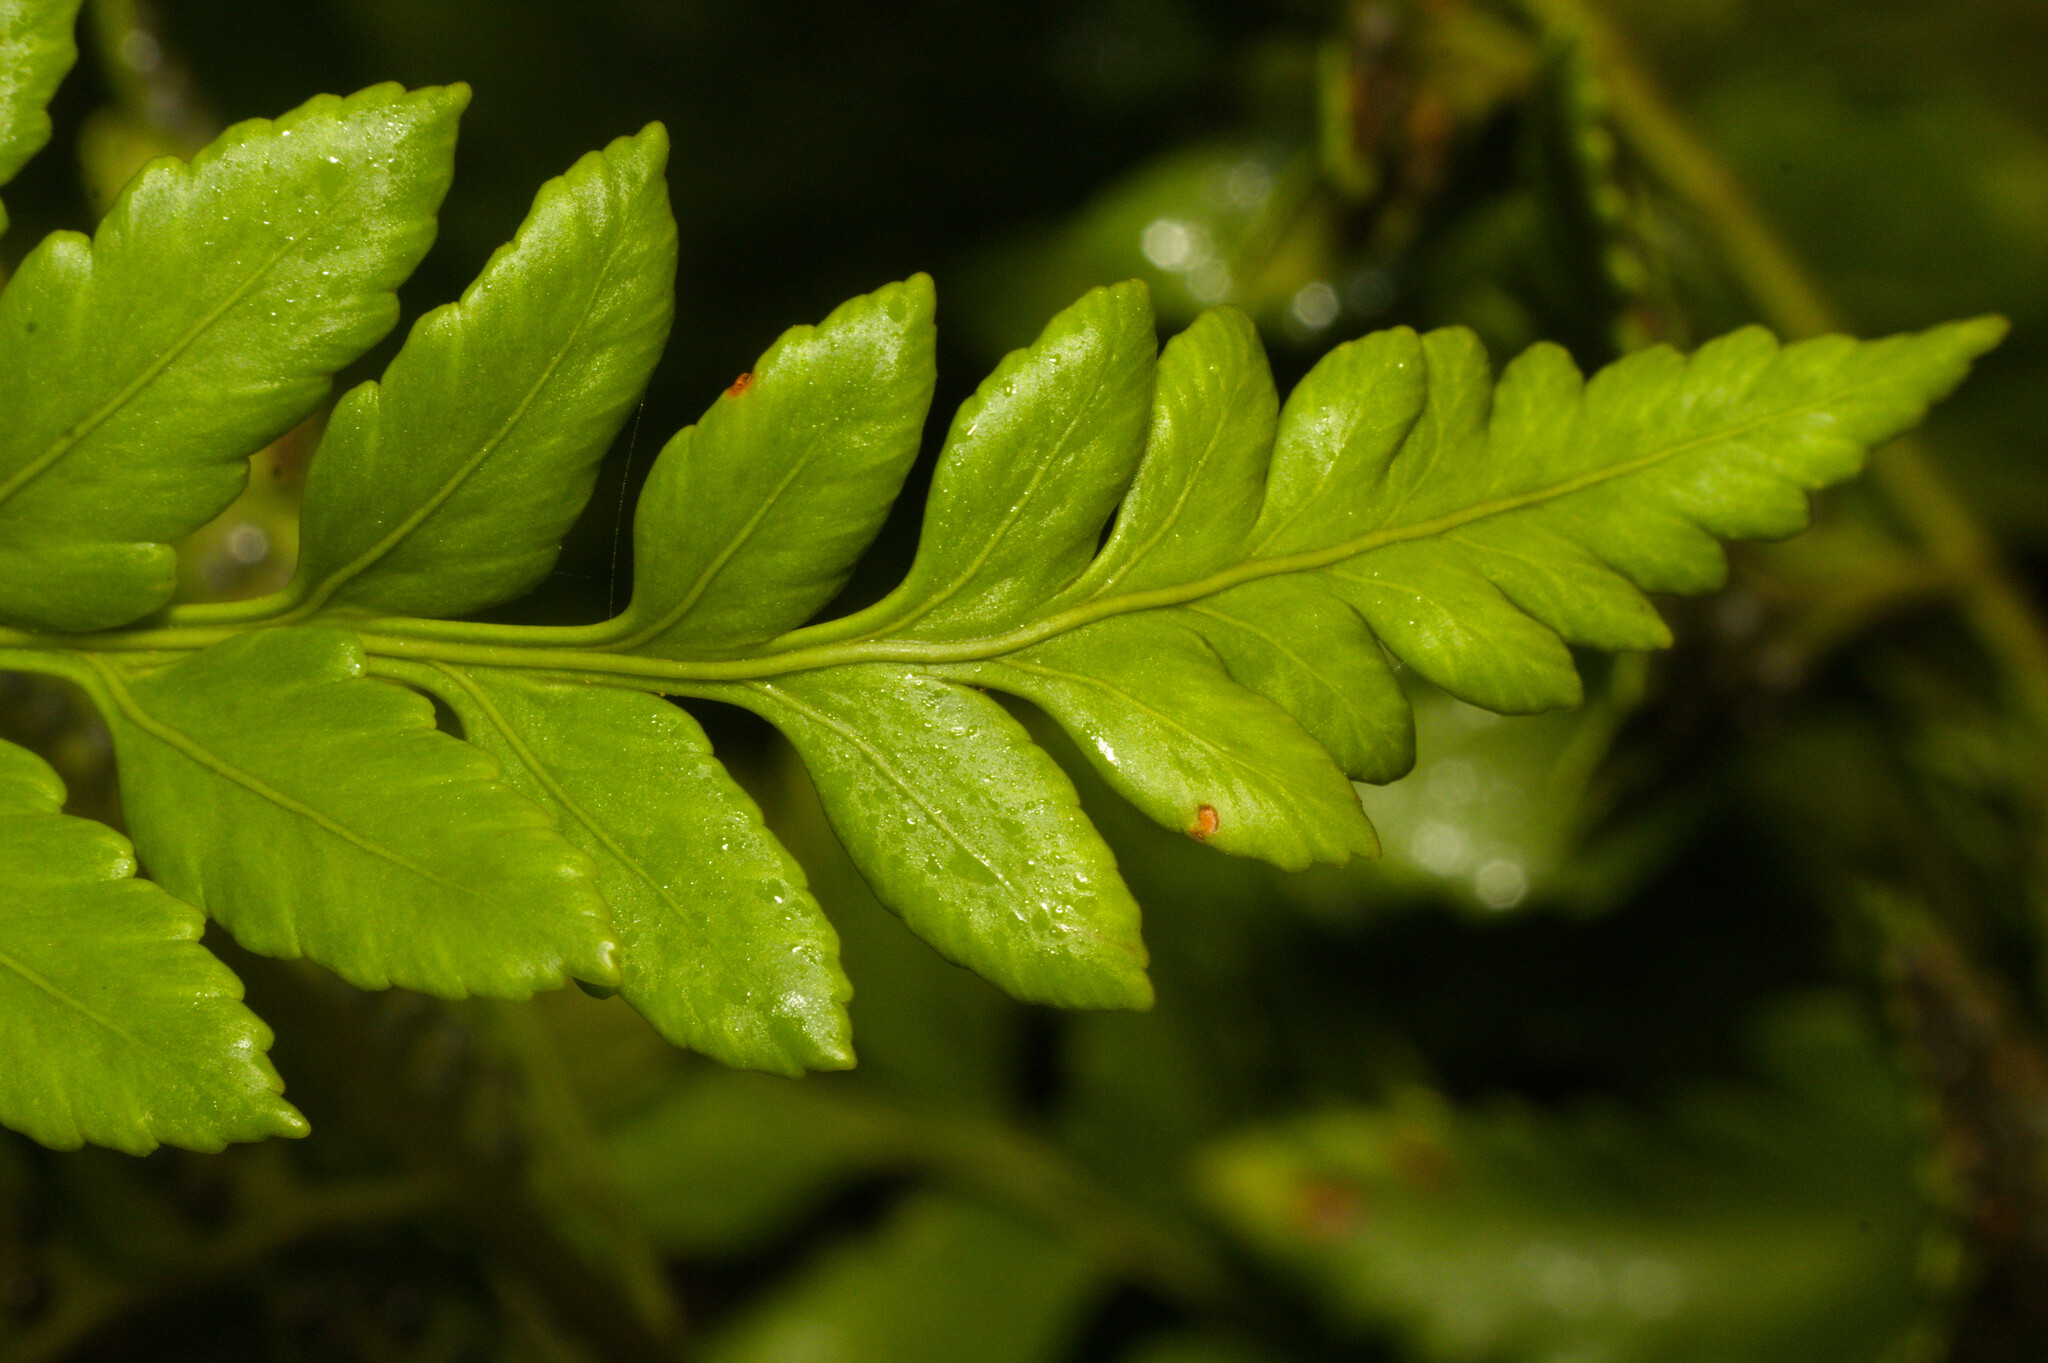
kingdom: Plantae
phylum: Tracheophyta
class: Polypodiopsida
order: Polypodiales
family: Dryopteridaceae
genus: Rumohra
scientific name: Rumohra adiantiformis
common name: Leather fern
